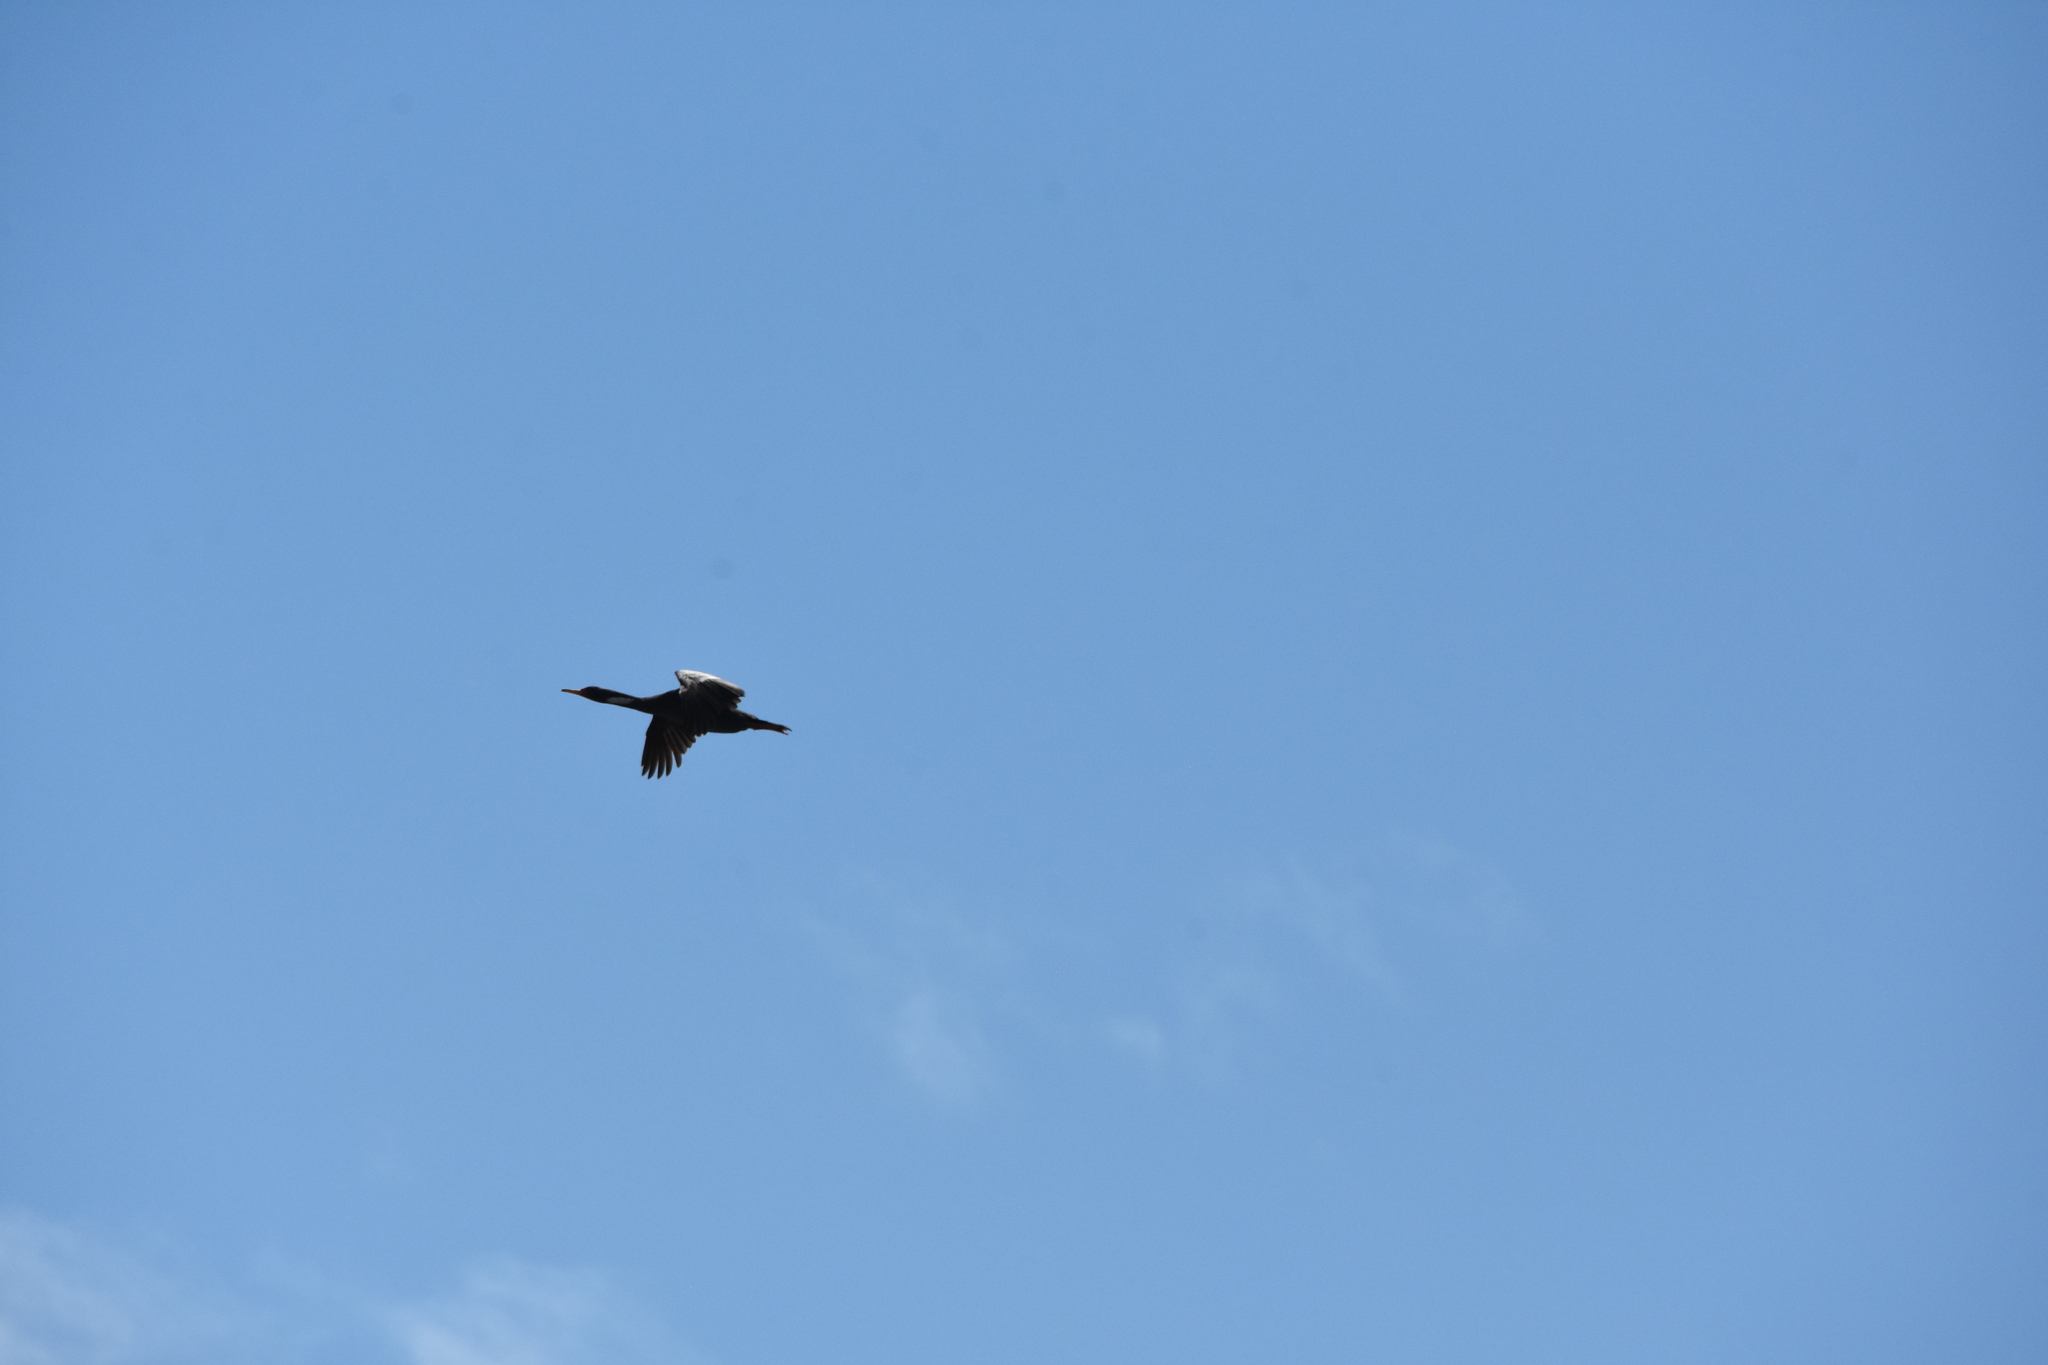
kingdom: Animalia
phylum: Chordata
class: Aves
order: Suliformes
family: Phalacrocoracidae
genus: Phalacrocorax
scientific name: Phalacrocorax gaimardi
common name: Red-legged cormorant
